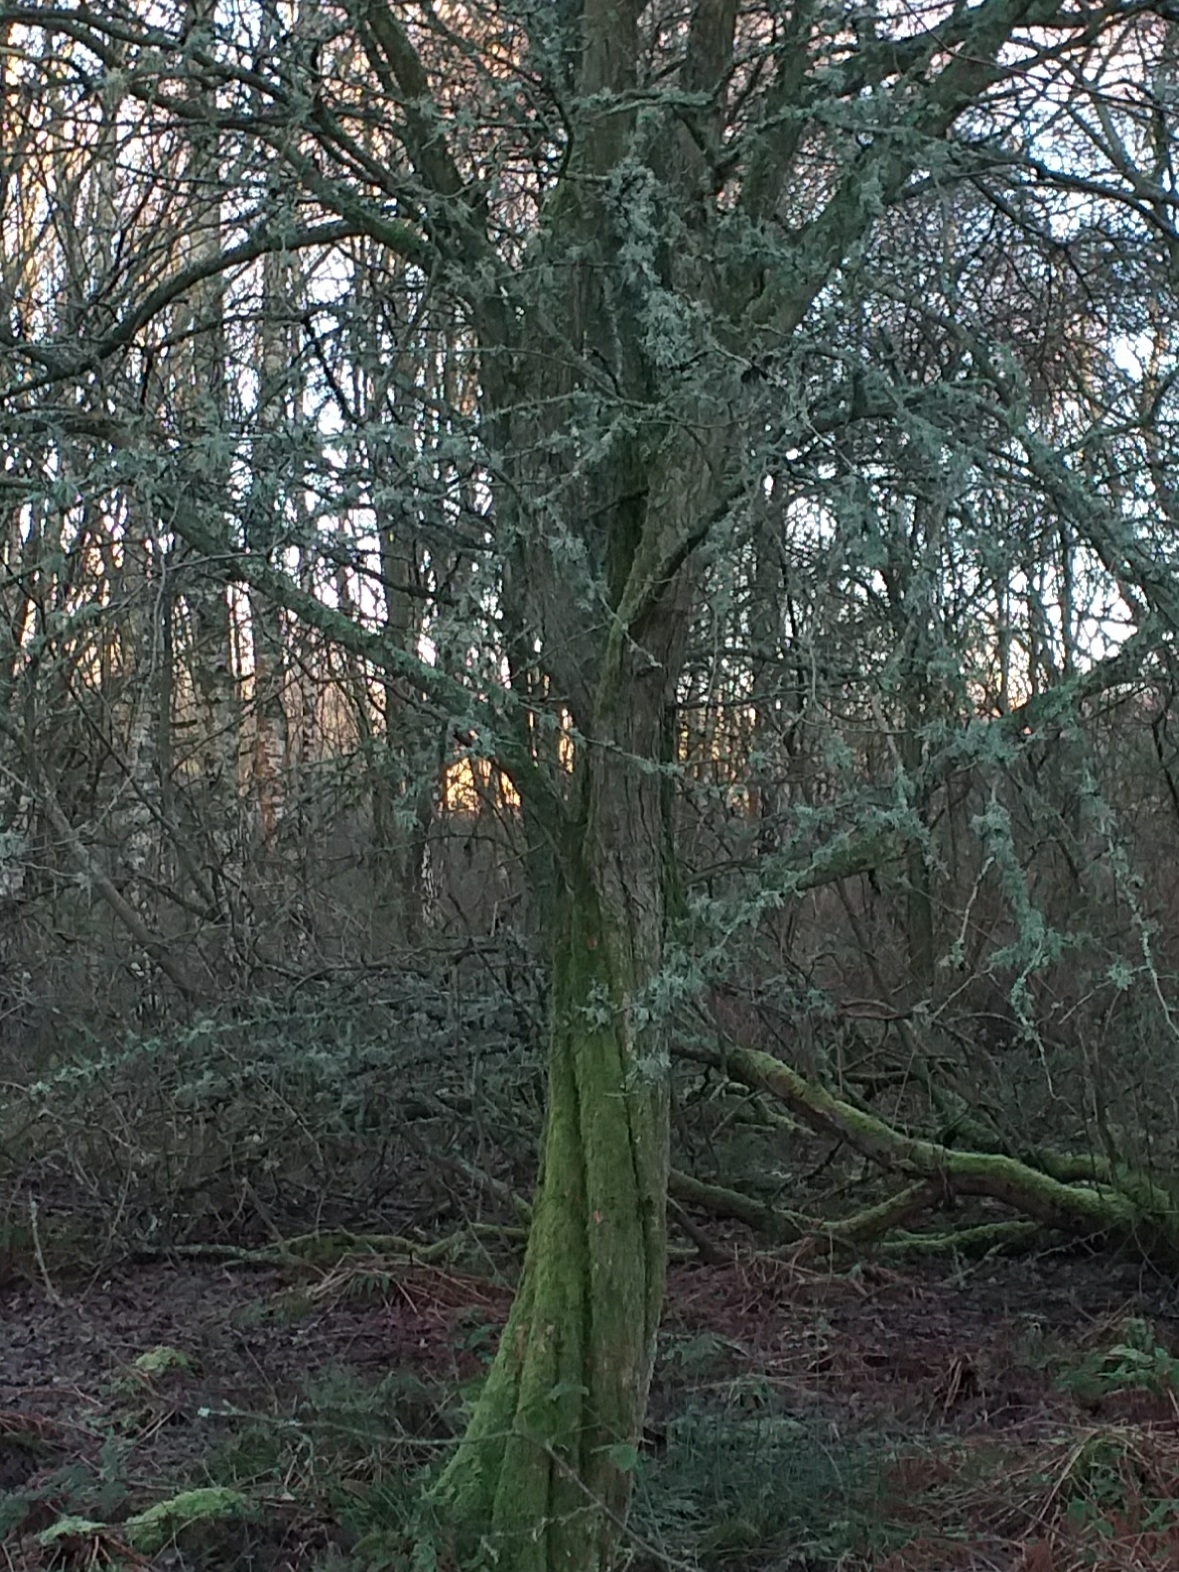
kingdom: Plantae
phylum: Tracheophyta
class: Magnoliopsida
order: Rosales
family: Rosaceae
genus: Crataegus
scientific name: Crataegus monogyna
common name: Hawthorn
